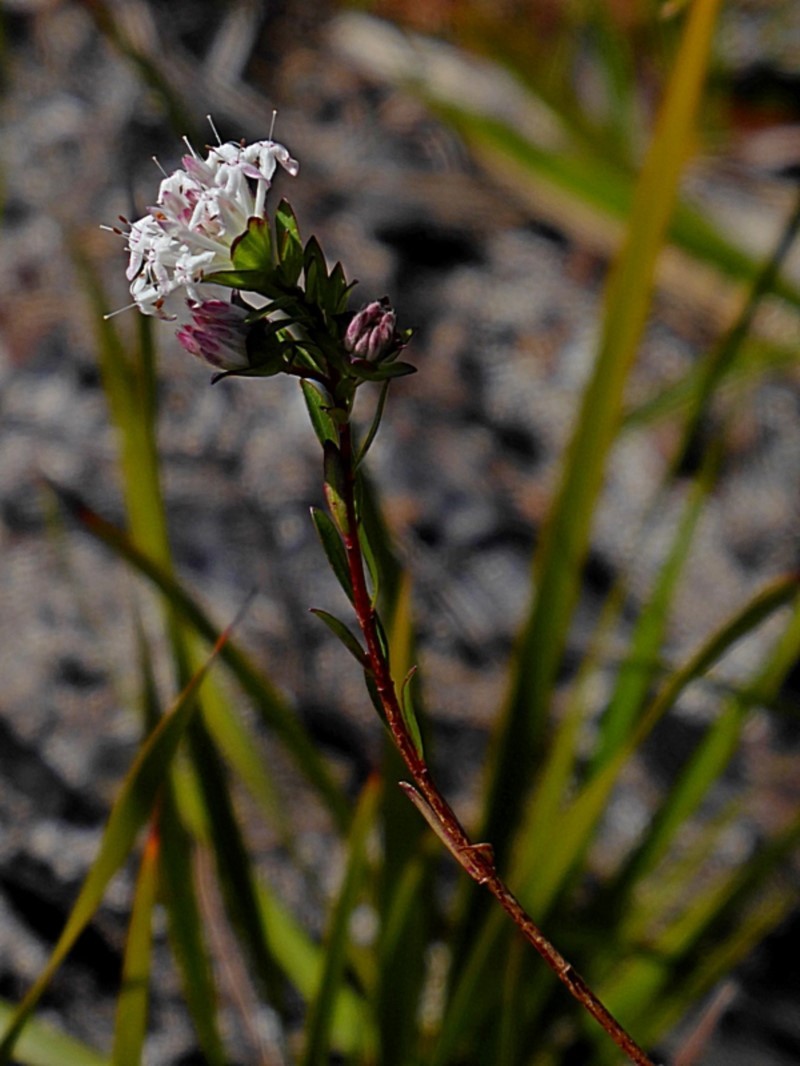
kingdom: Plantae
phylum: Tracheophyta
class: Magnoliopsida
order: Malvales
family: Thymelaeaceae
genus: Pimelea
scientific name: Pimelea linifolia
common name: Queen-of-the-bush
